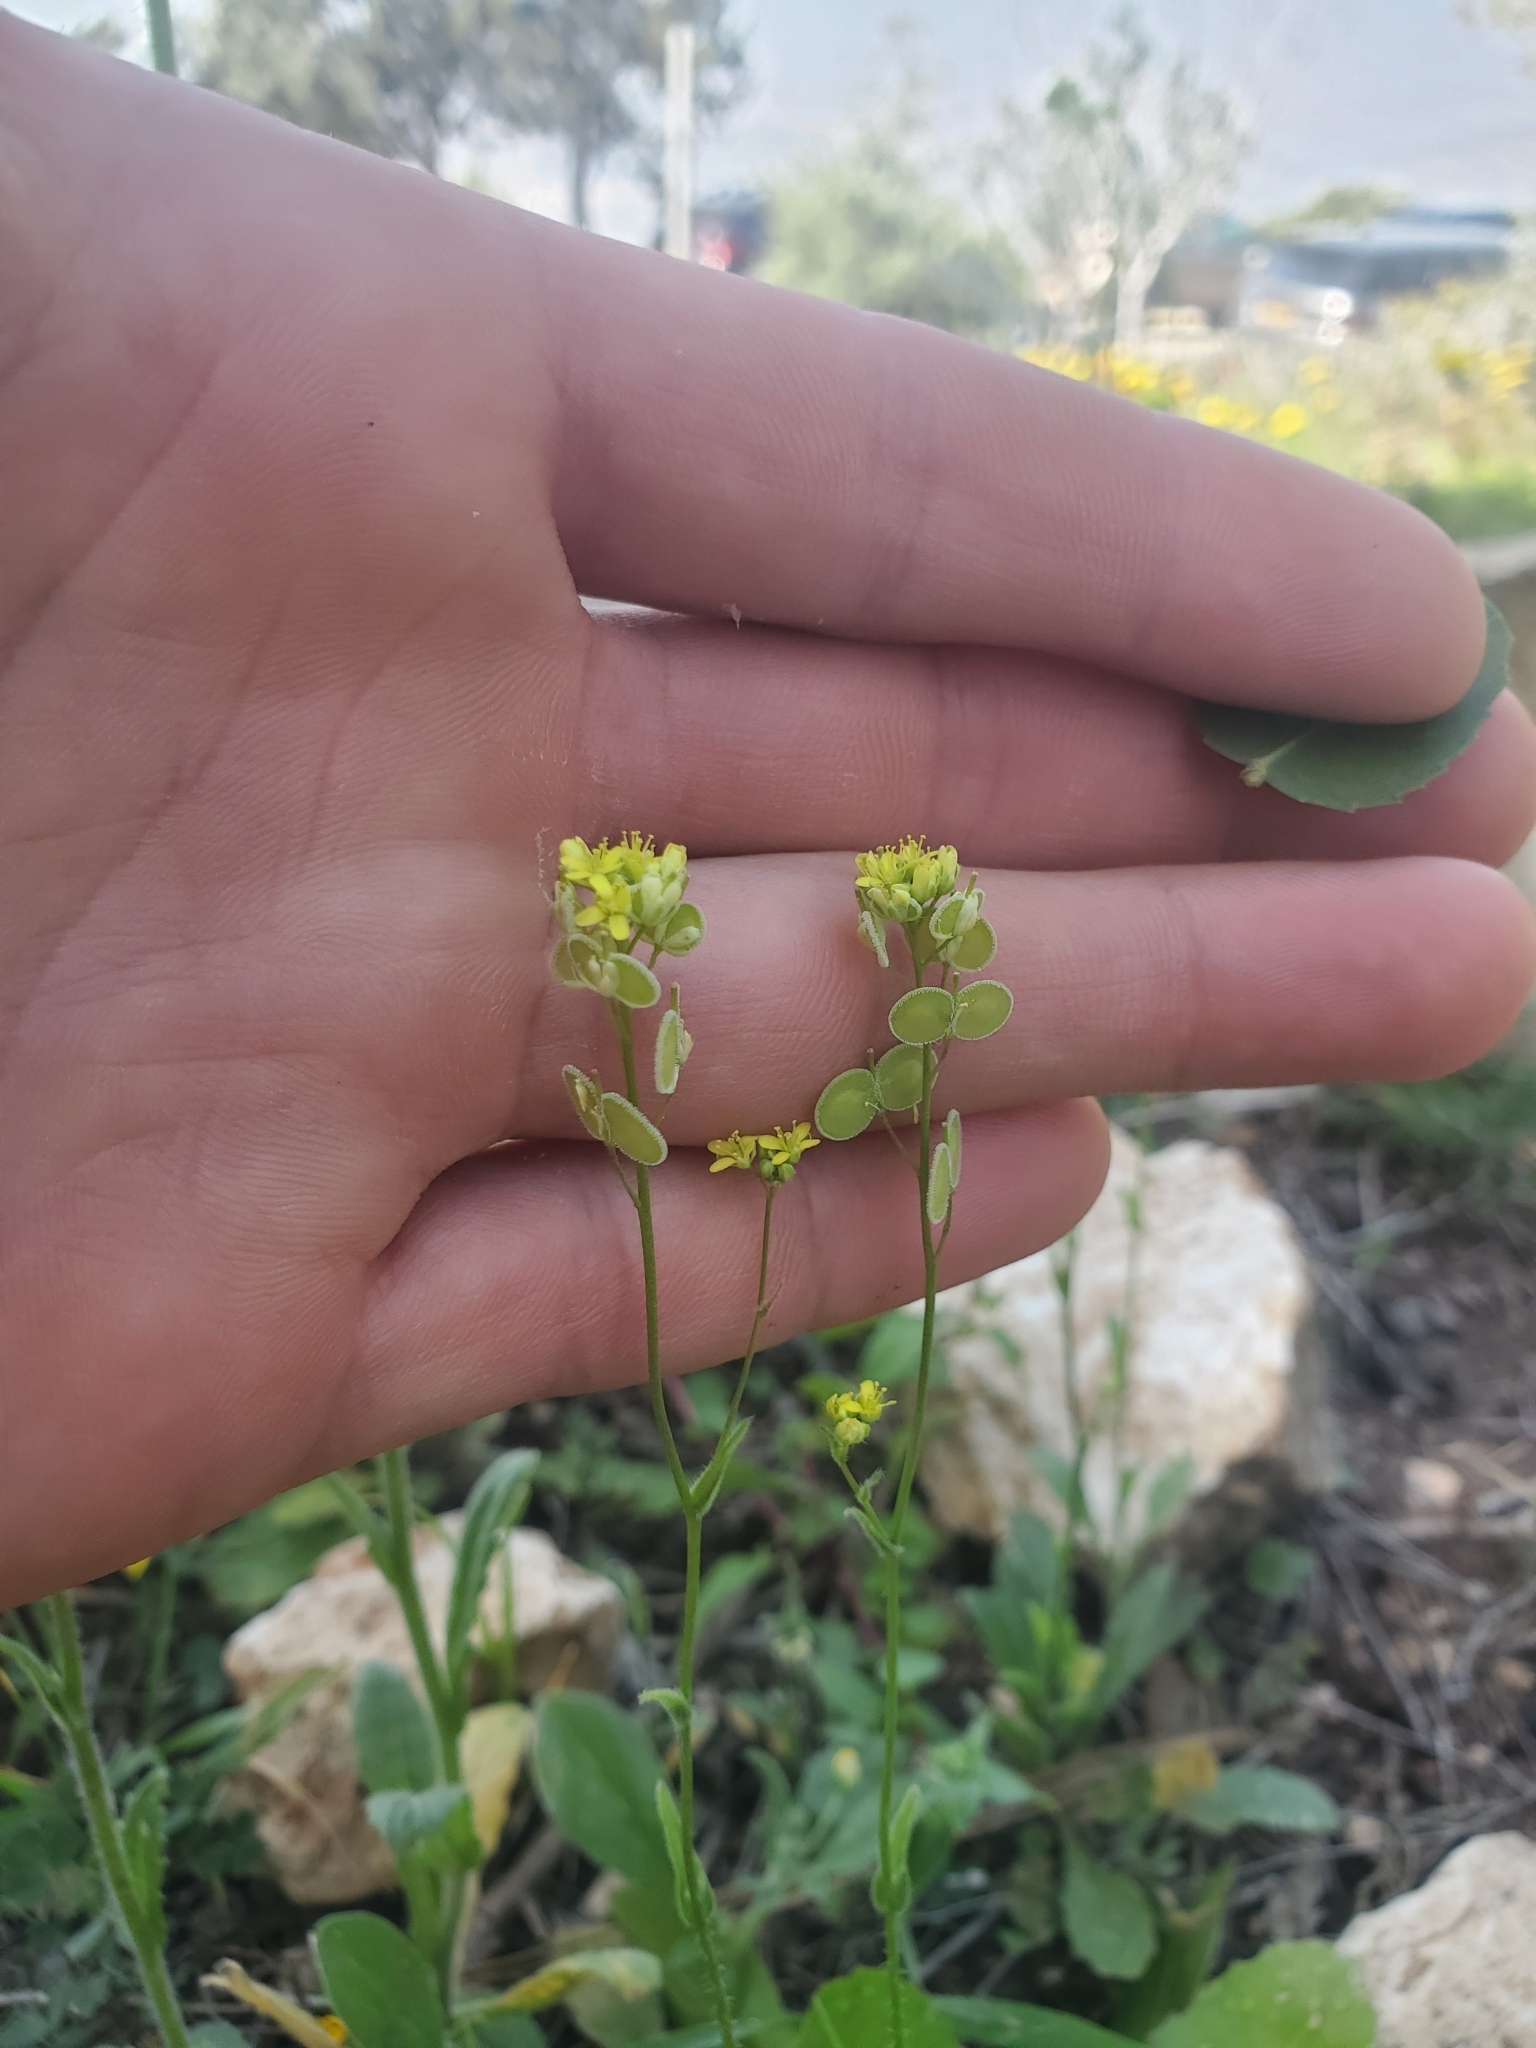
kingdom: Plantae
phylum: Tracheophyta
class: Magnoliopsida
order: Brassicales
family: Brassicaceae
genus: Biscutella
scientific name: Biscutella didyma
